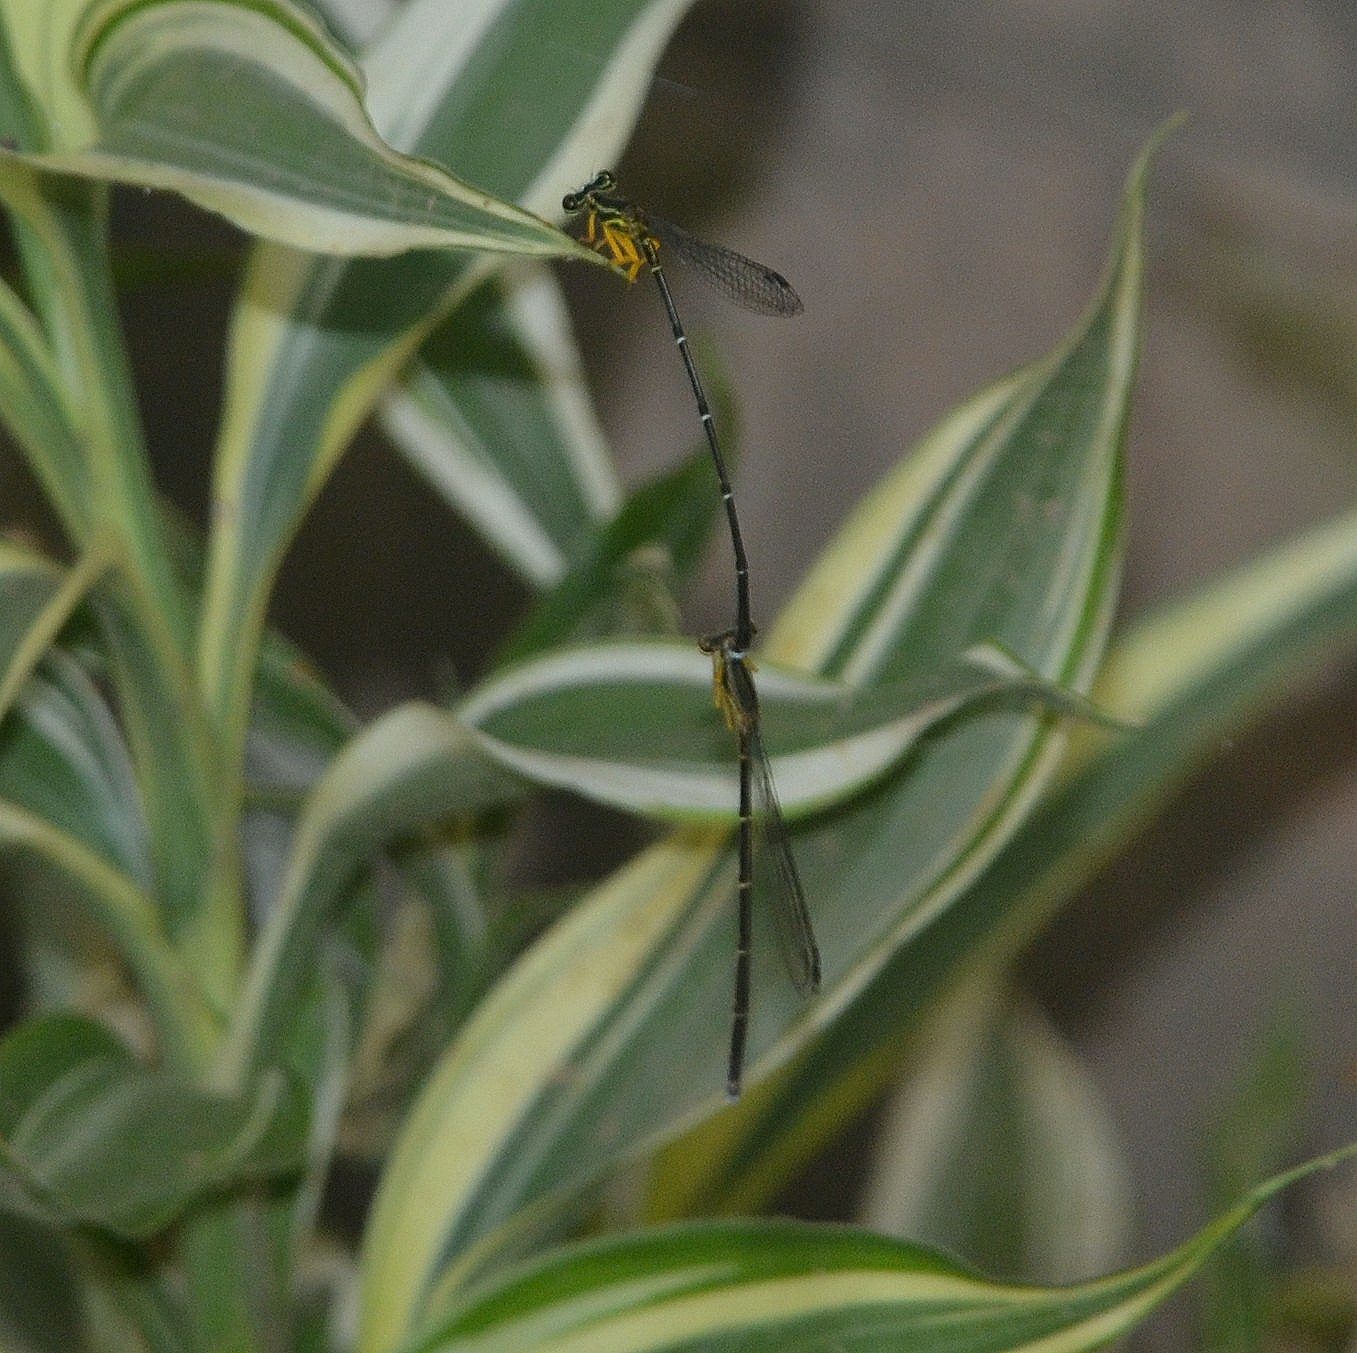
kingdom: Animalia
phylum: Arthropoda
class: Insecta
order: Odonata
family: Platycnemididae
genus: Copera
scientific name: Copera marginipes
